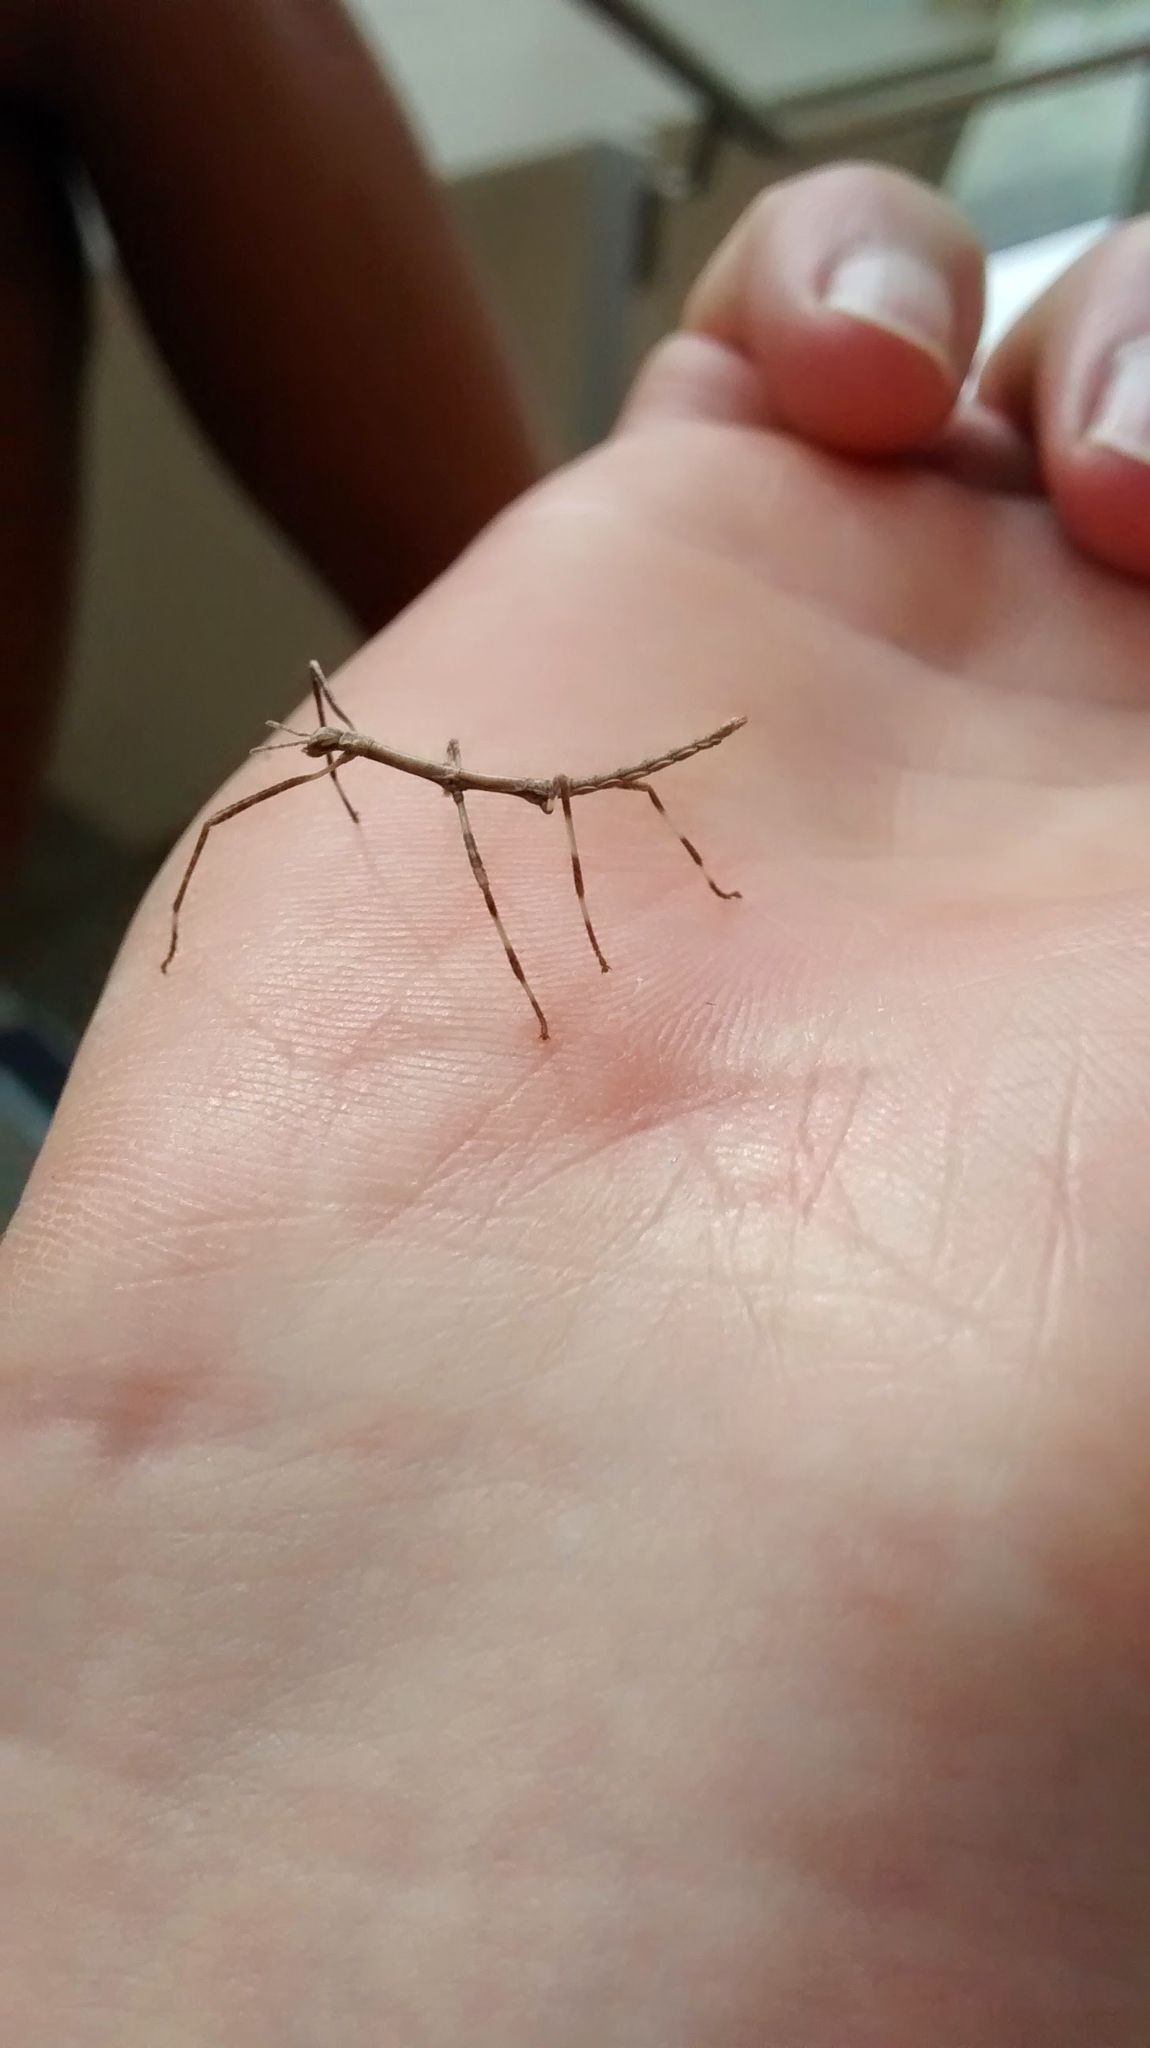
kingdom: Animalia
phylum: Arthropoda
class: Insecta
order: Phasmida
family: Phasmatidae
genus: Argosarchus
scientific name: Argosarchus horridus
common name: Bristly stick insect
